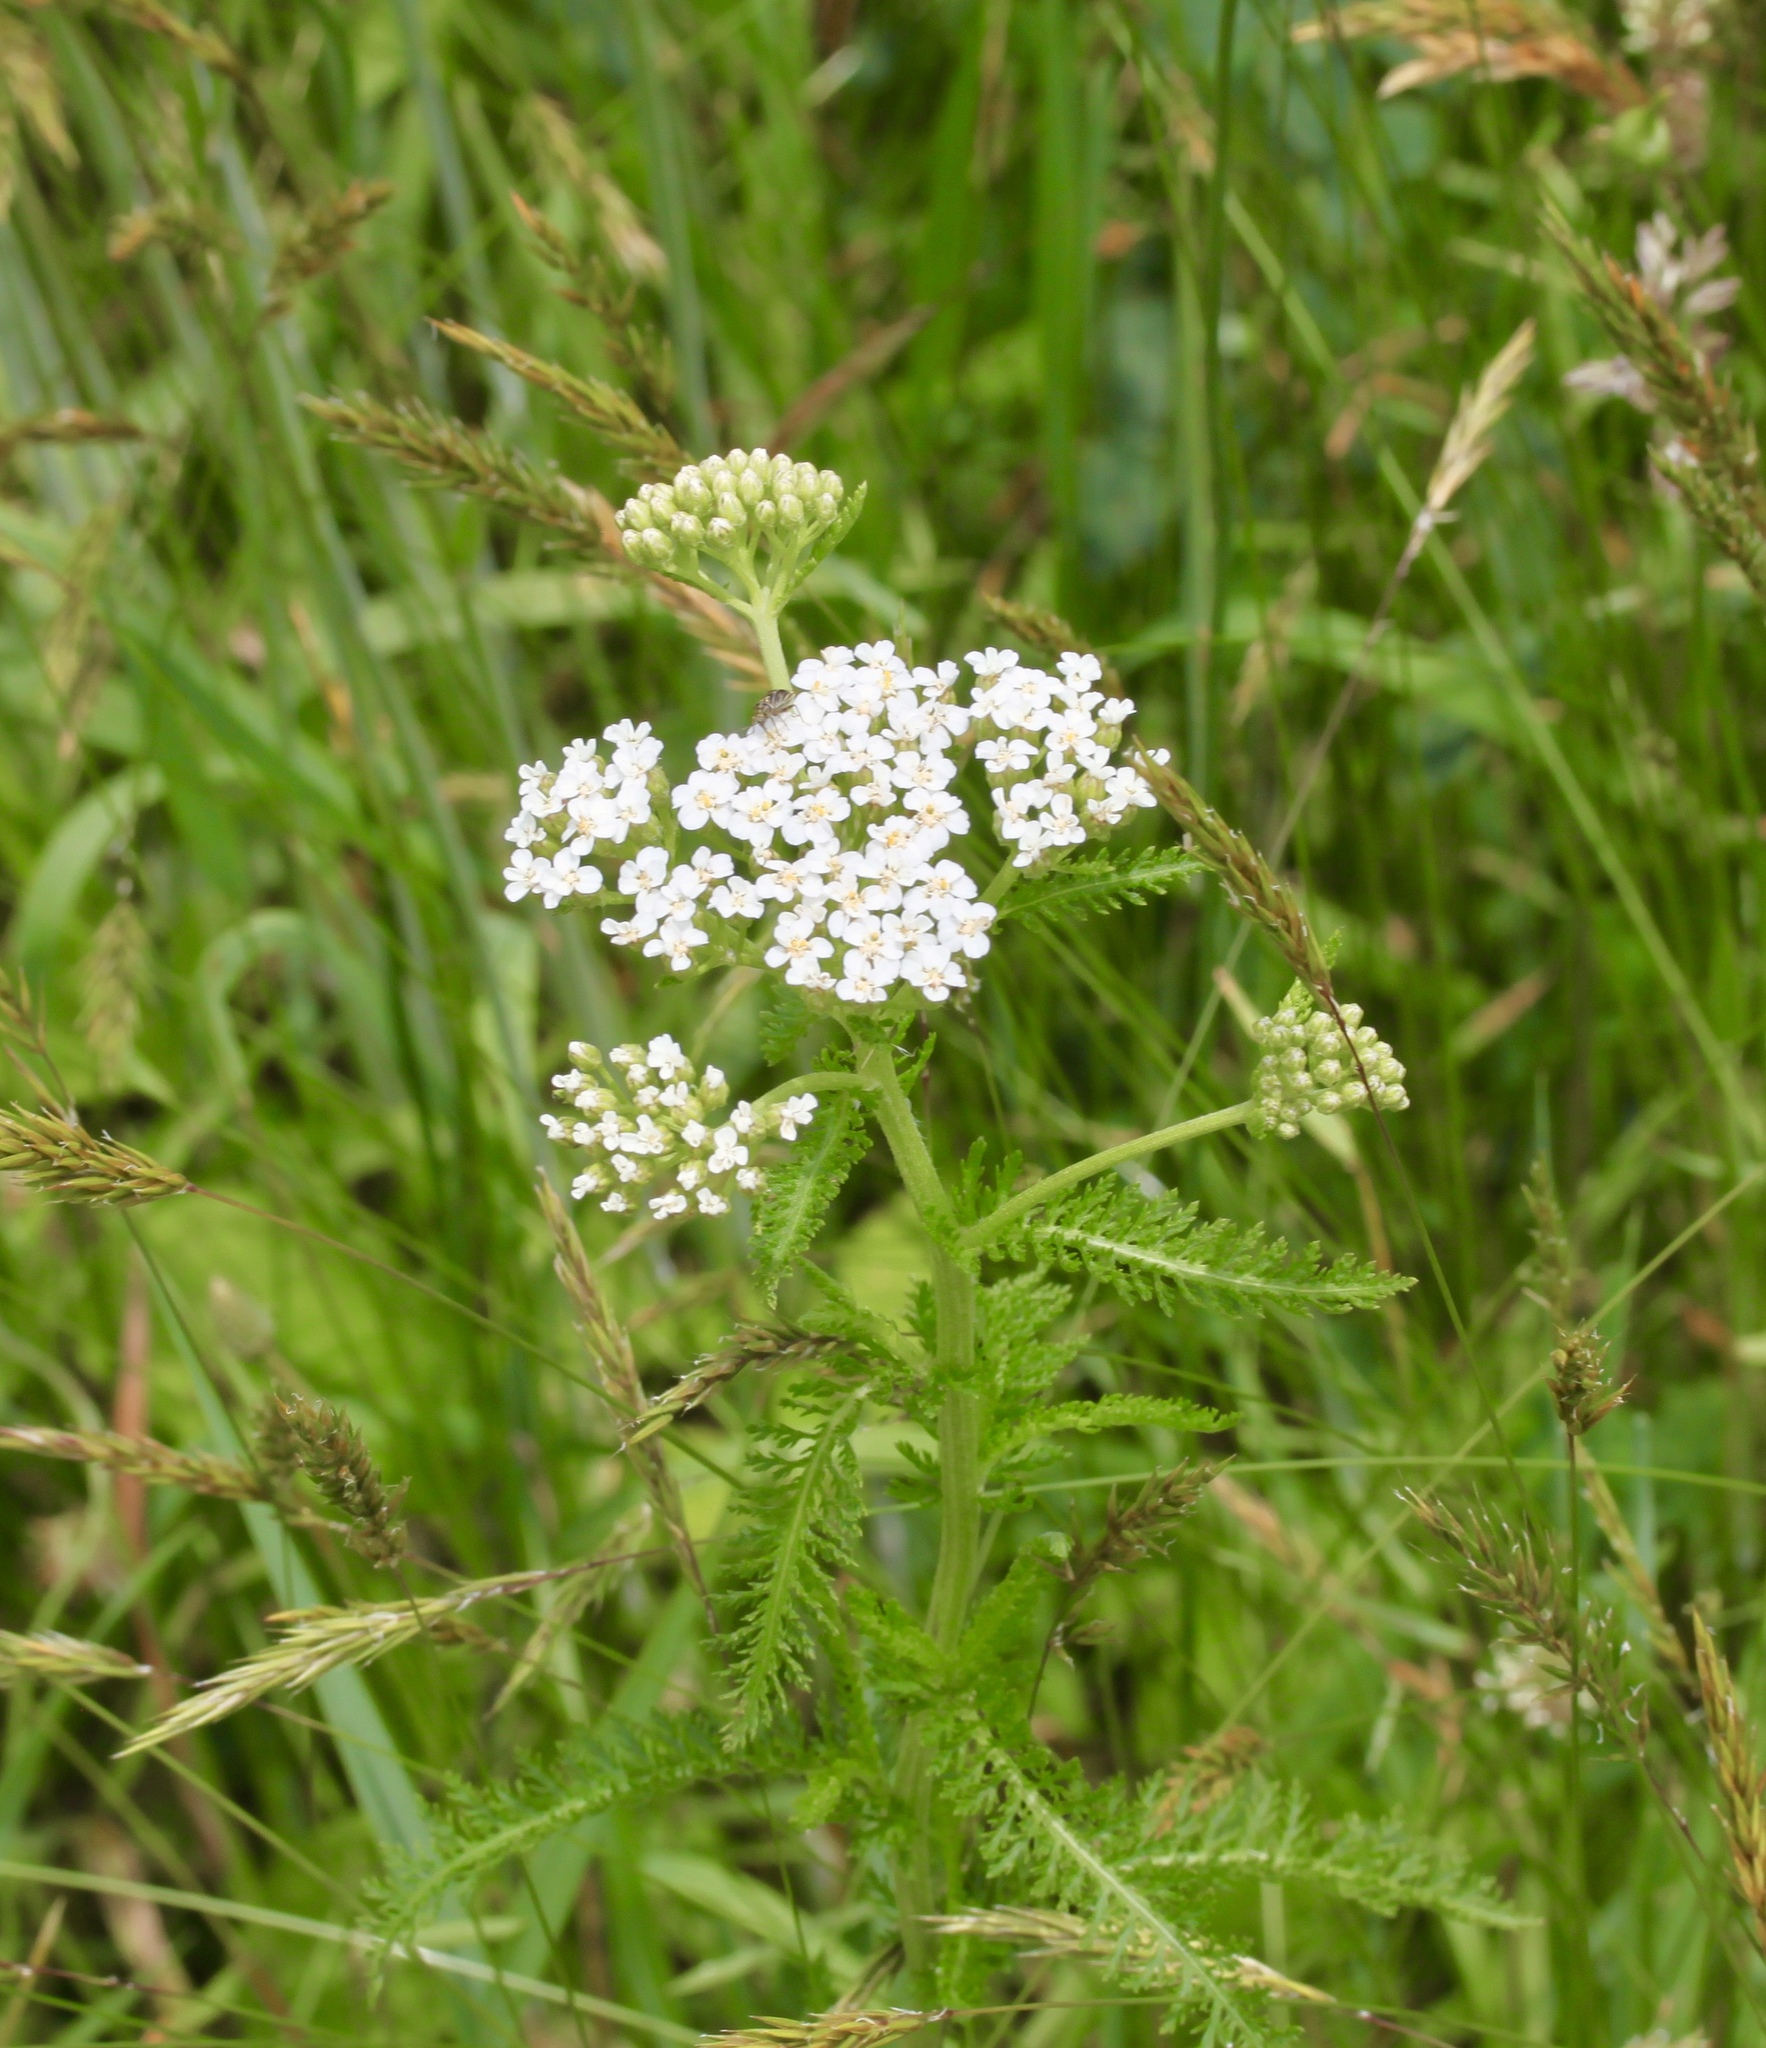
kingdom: Plantae
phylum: Tracheophyta
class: Magnoliopsida
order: Asterales
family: Asteraceae
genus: Achillea
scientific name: Achillea millefolium
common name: Yarrow
